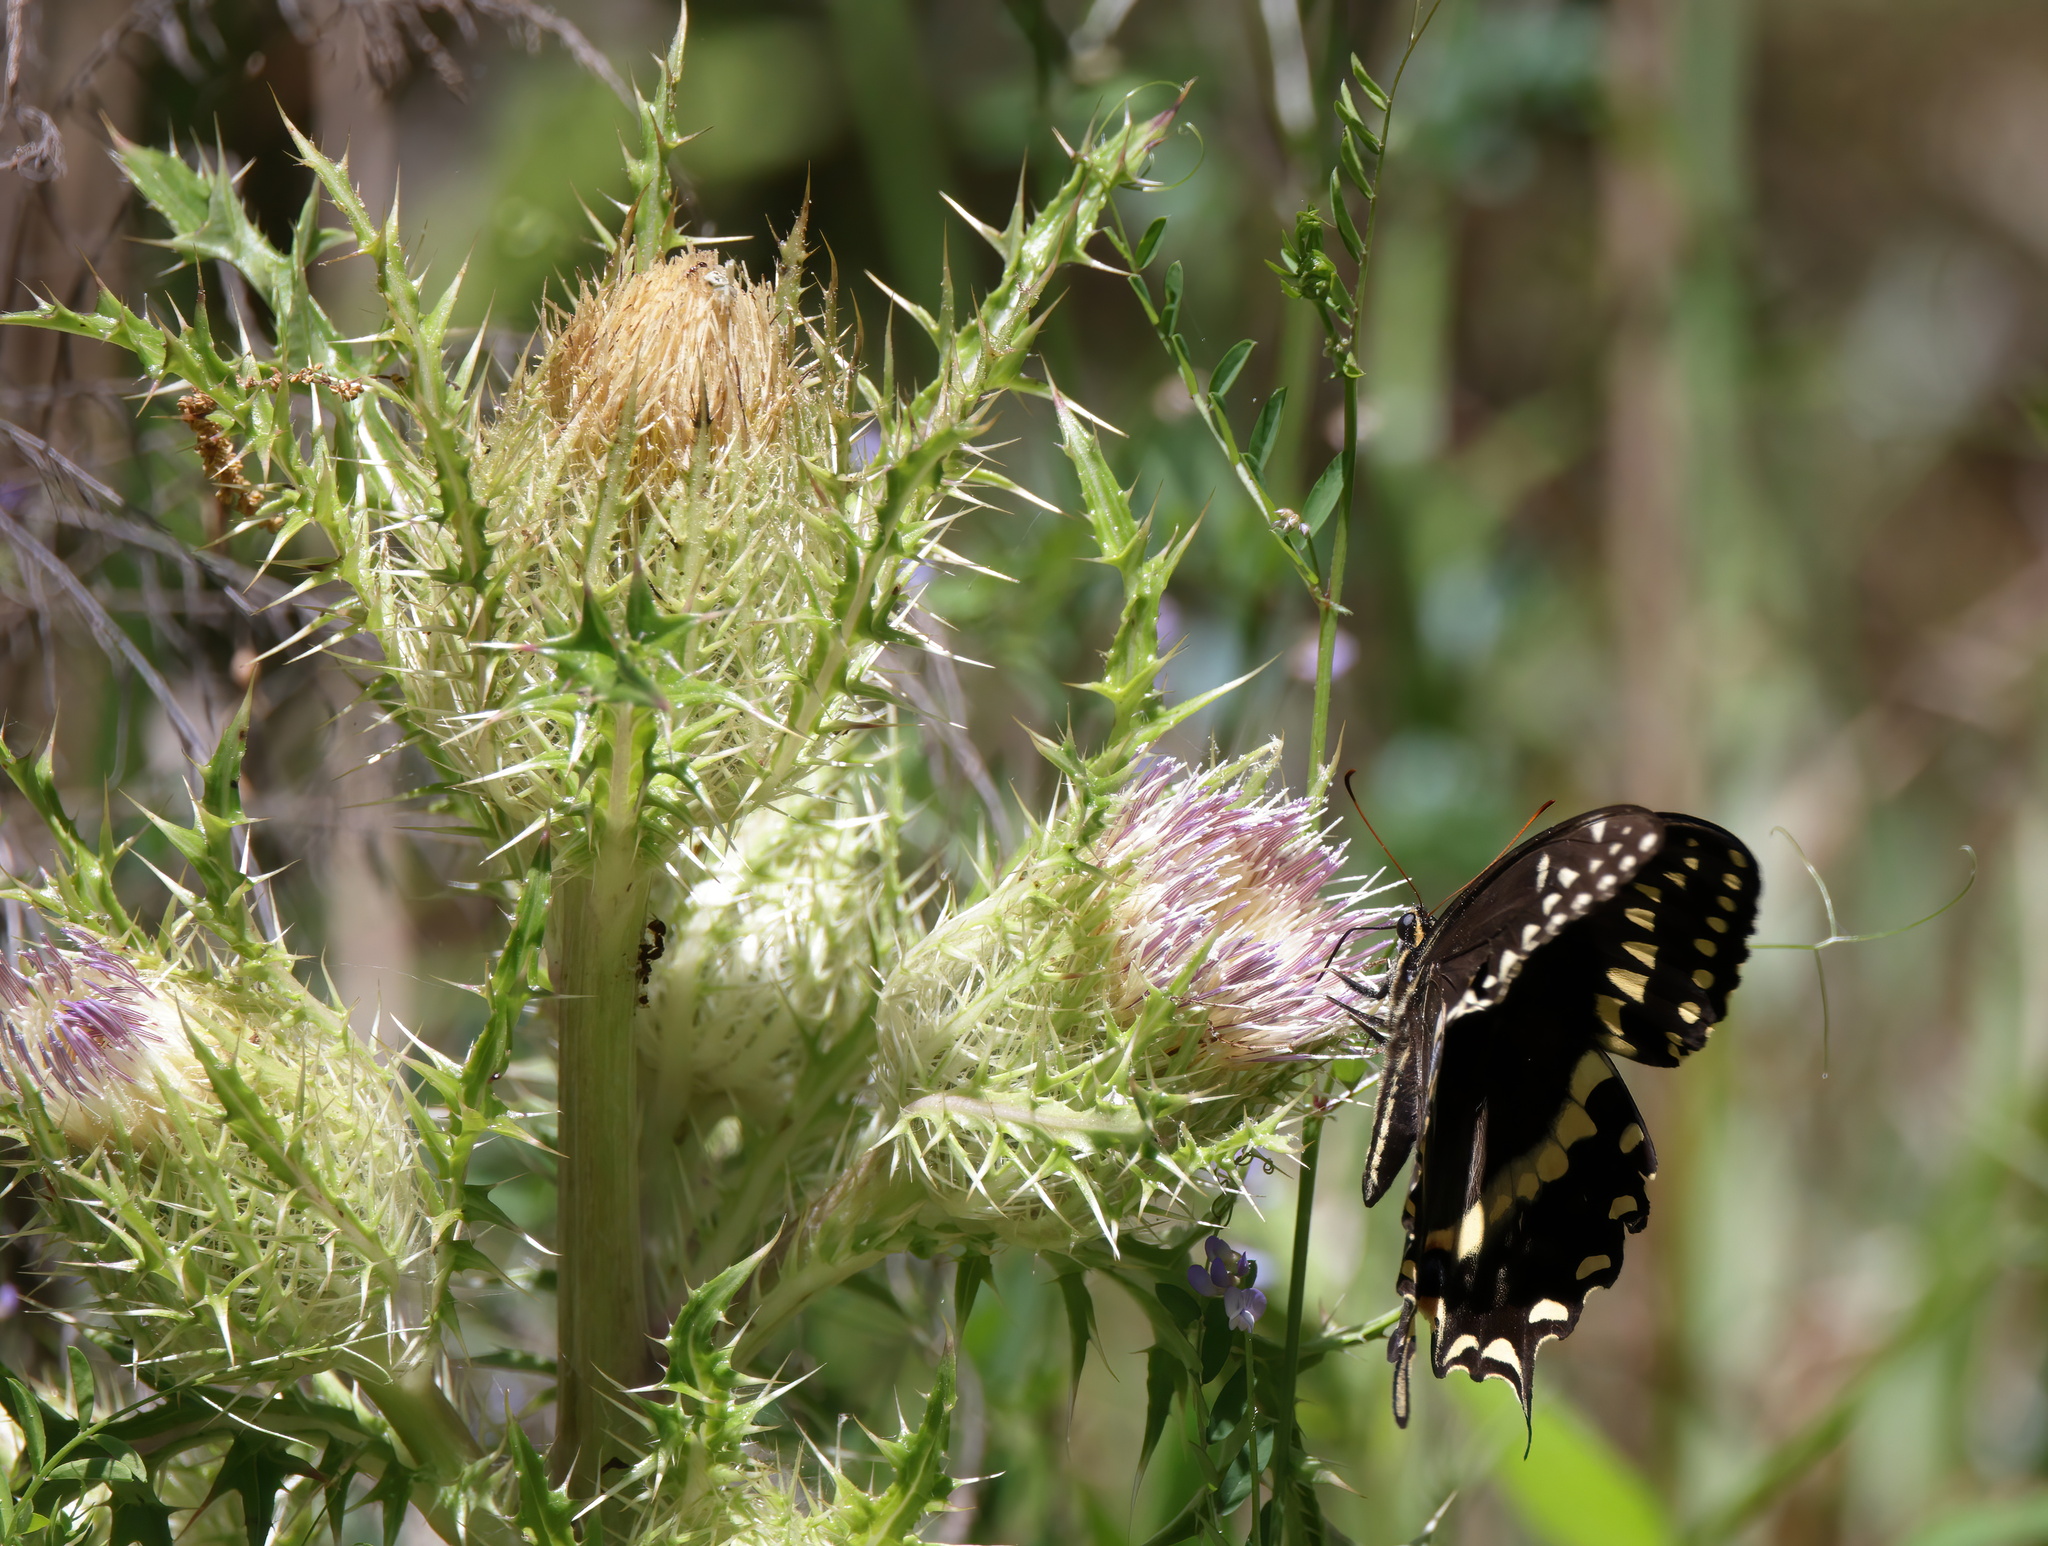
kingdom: Animalia
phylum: Arthropoda
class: Insecta
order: Lepidoptera
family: Papilionidae
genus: Papilio
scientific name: Papilio palamedes
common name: Palamedes swallowtail
